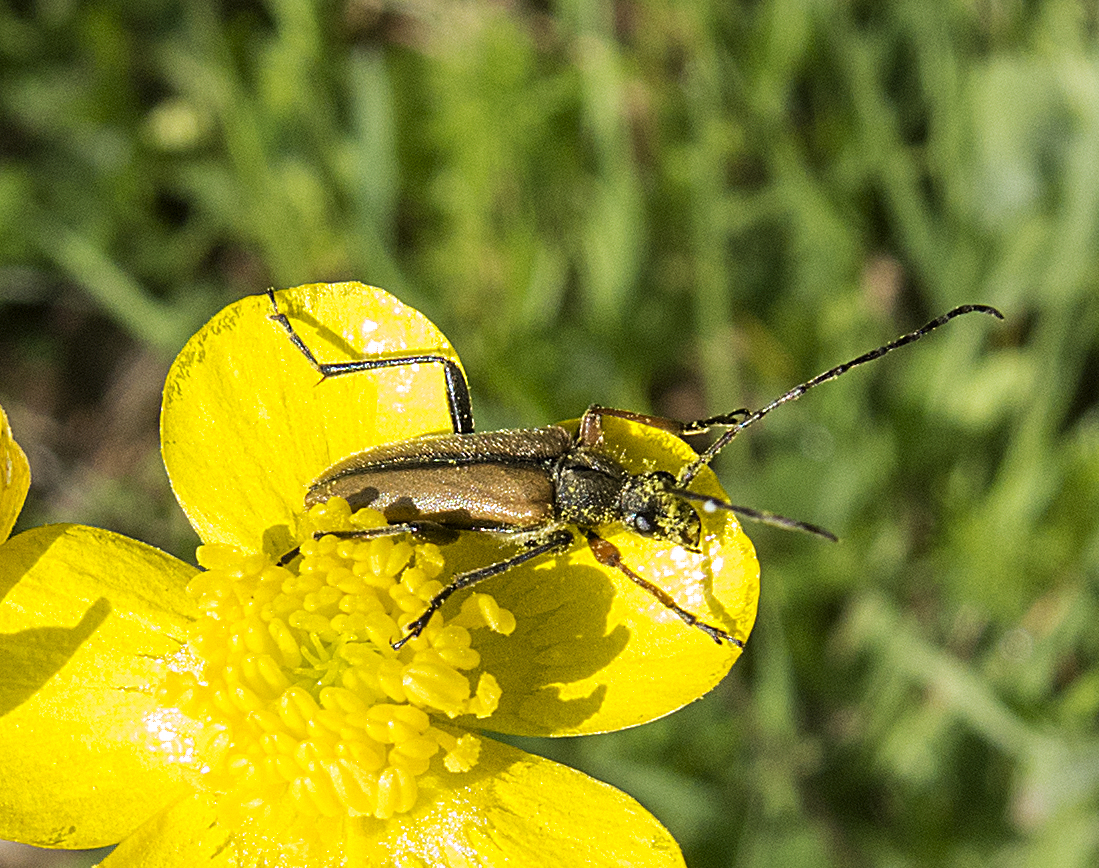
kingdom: Animalia
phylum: Arthropoda
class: Insecta
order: Coleoptera
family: Cerambycidae
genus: Cortodera
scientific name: Cortodera flavimana
